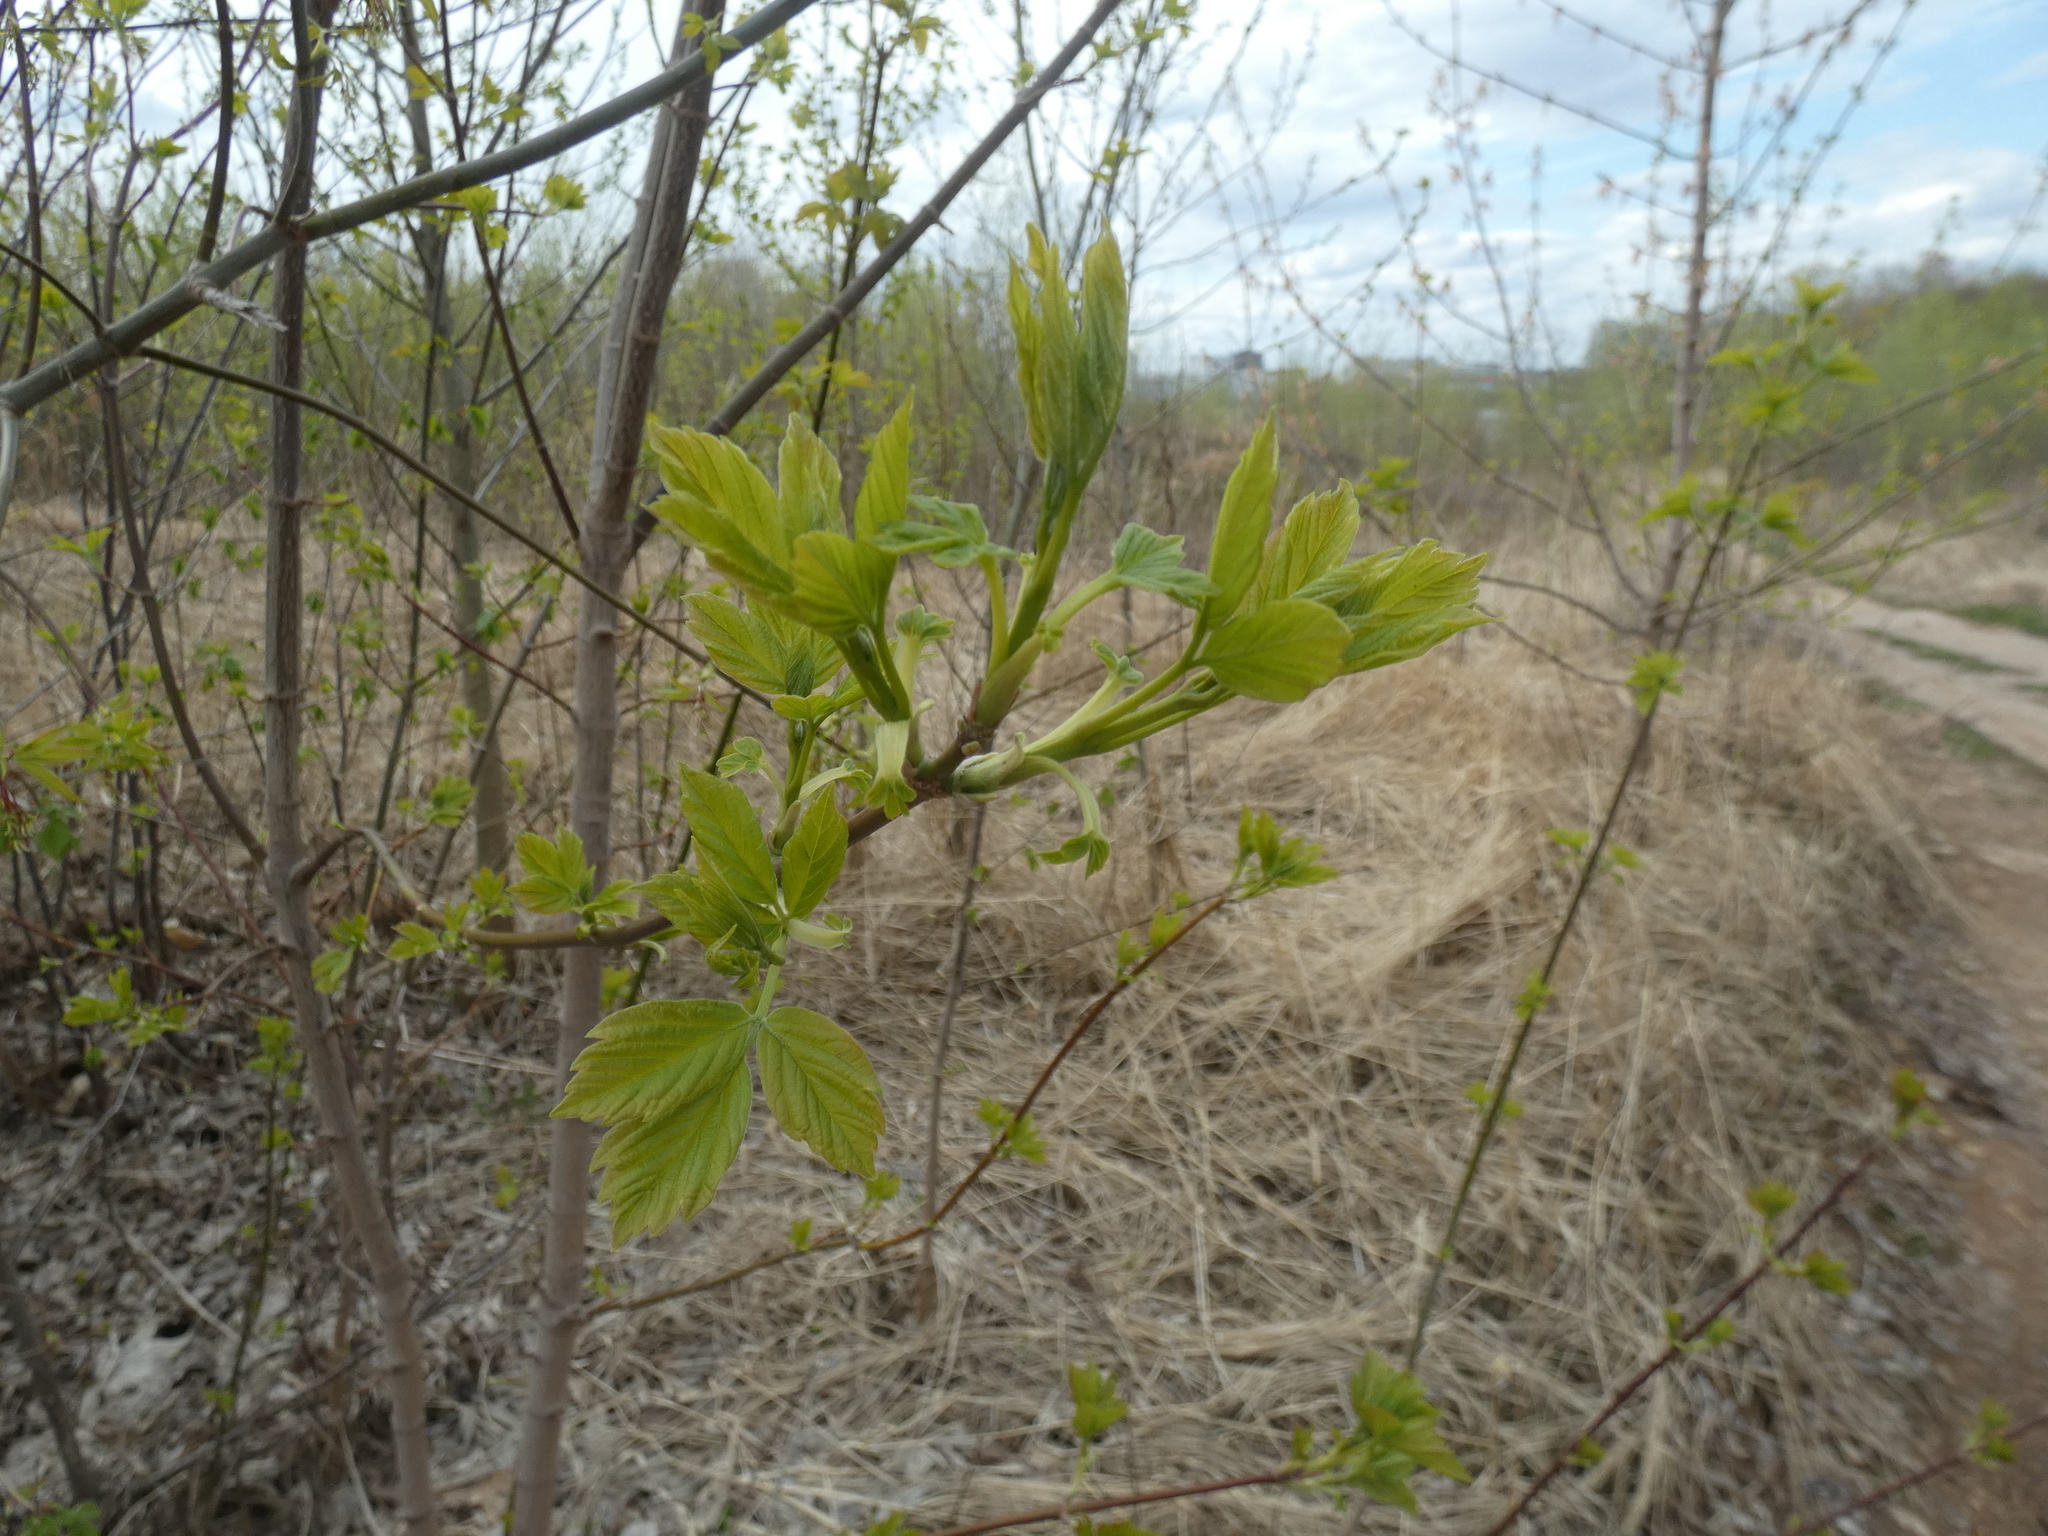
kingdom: Plantae
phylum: Tracheophyta
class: Magnoliopsida
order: Sapindales
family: Sapindaceae
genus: Acer
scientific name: Acer negundo
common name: Ashleaf maple
